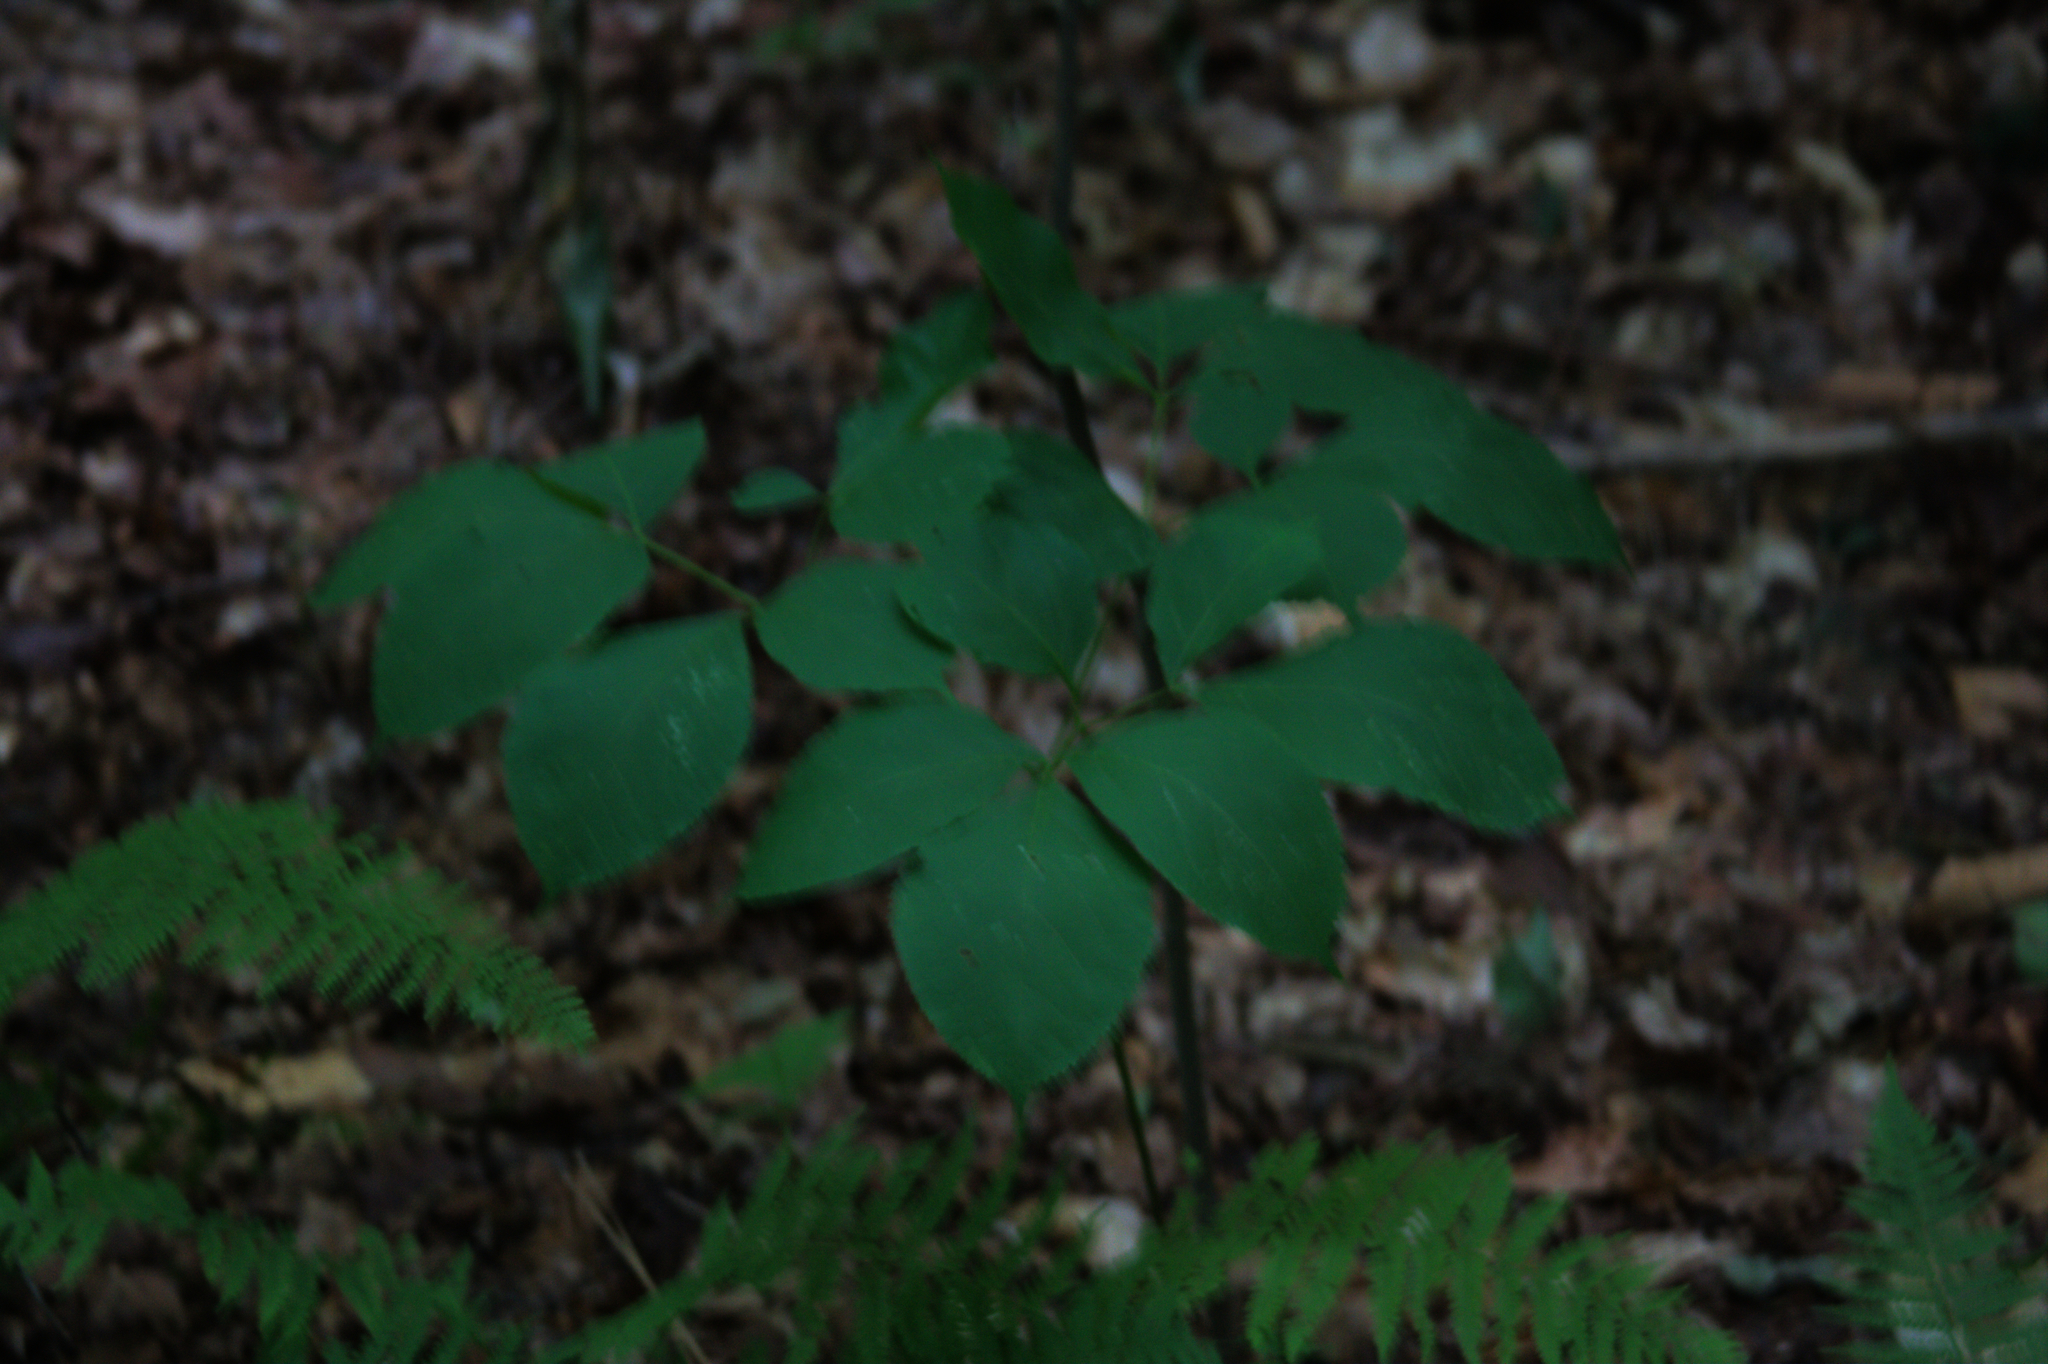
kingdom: Plantae
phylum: Tracheophyta
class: Magnoliopsida
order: Apiales
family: Araliaceae
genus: Aralia
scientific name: Aralia nudicaulis
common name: Wild sarsaparilla
